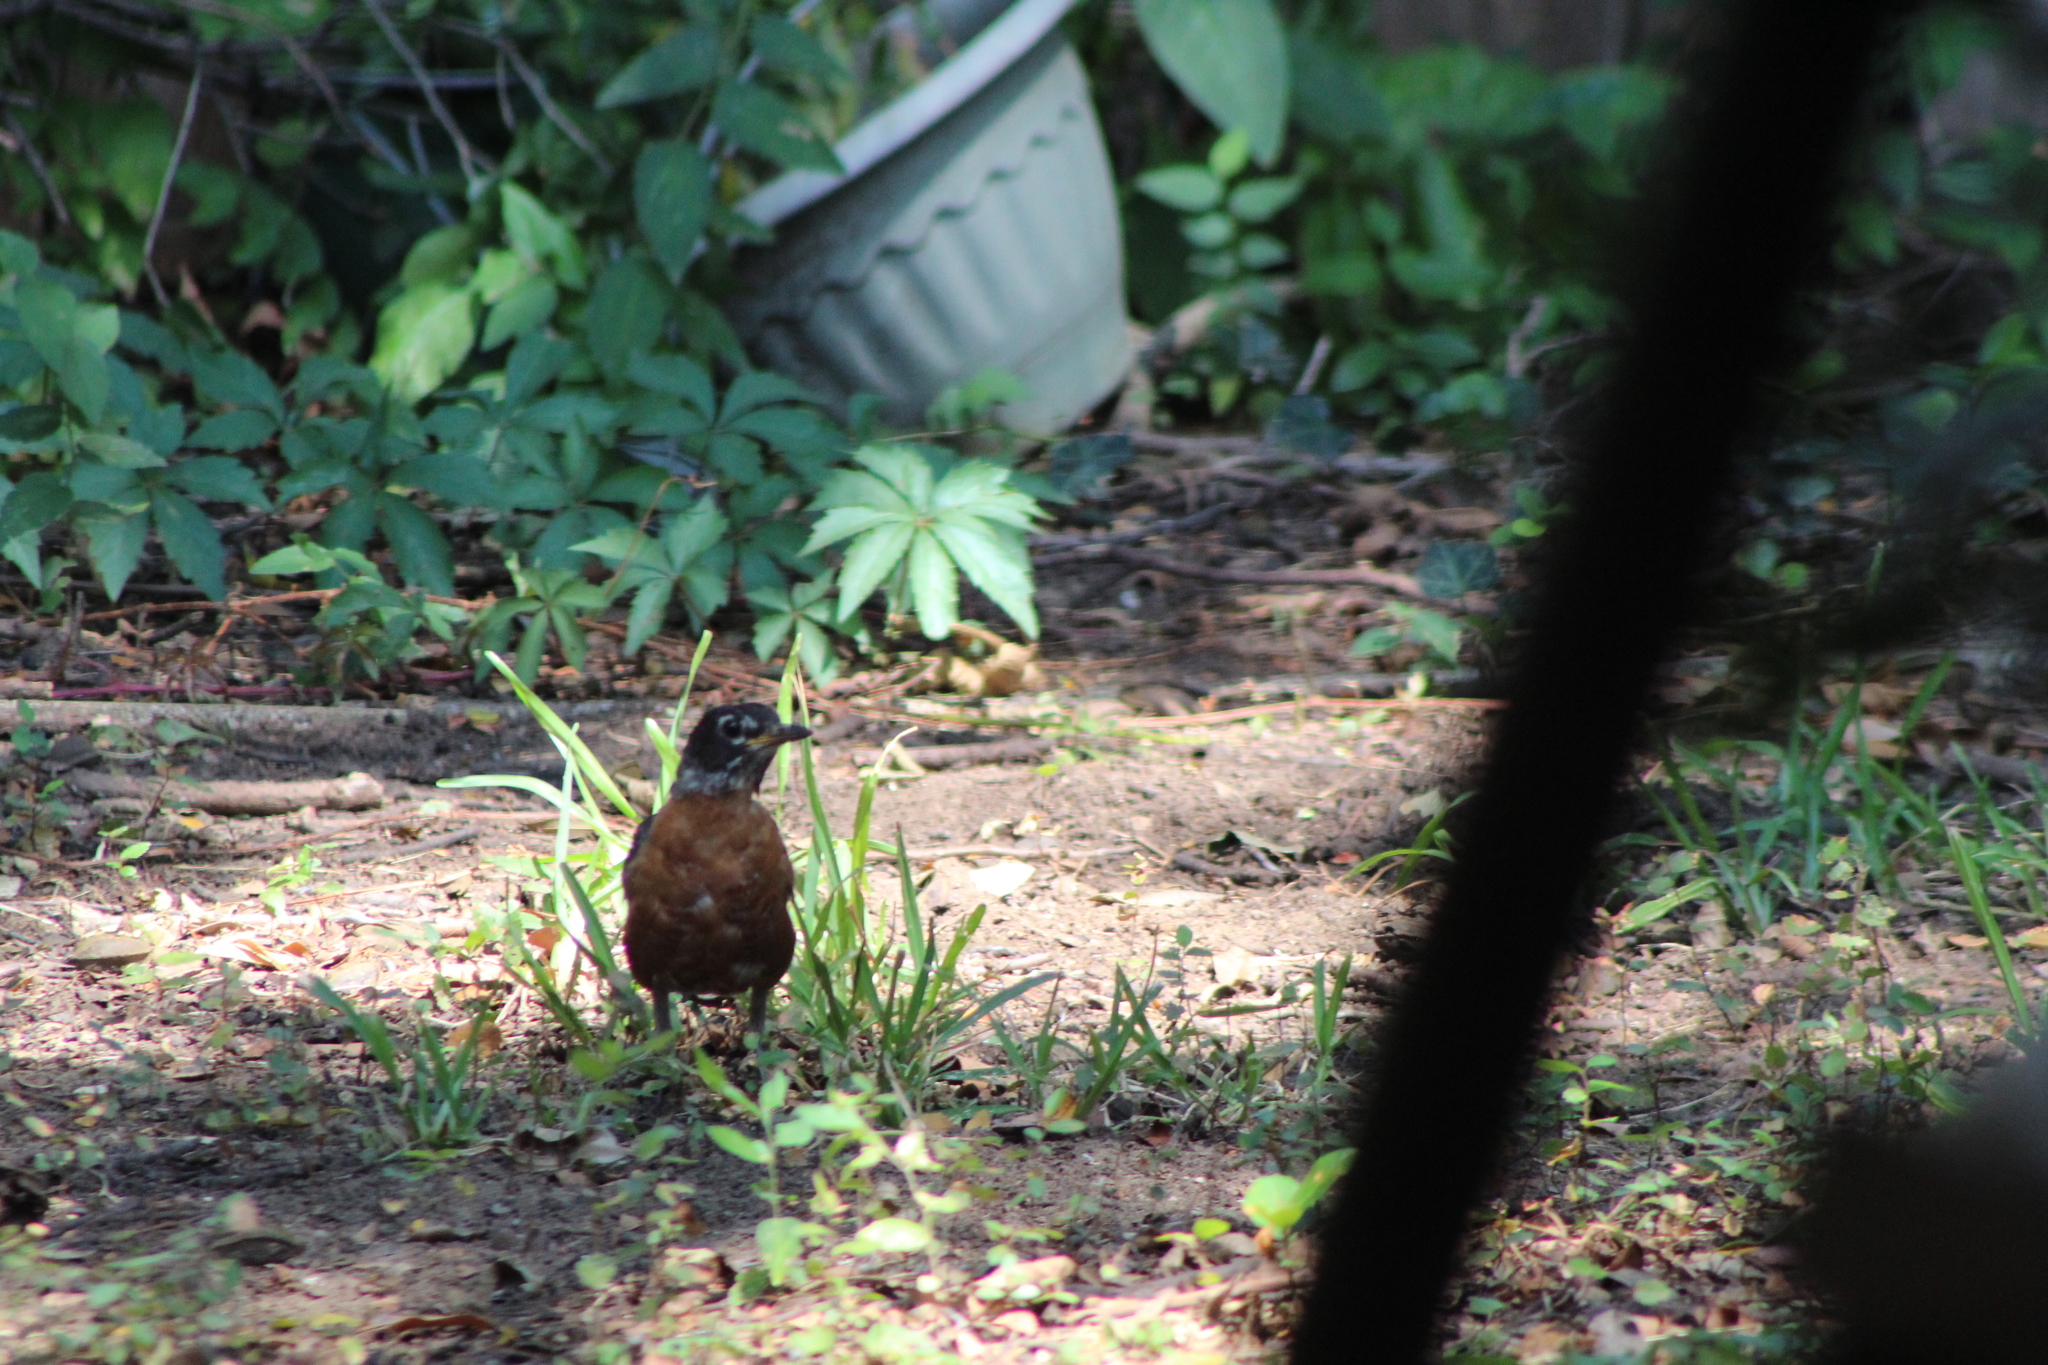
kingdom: Animalia
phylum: Chordata
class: Aves
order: Passeriformes
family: Turdidae
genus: Turdus
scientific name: Turdus migratorius
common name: American robin
